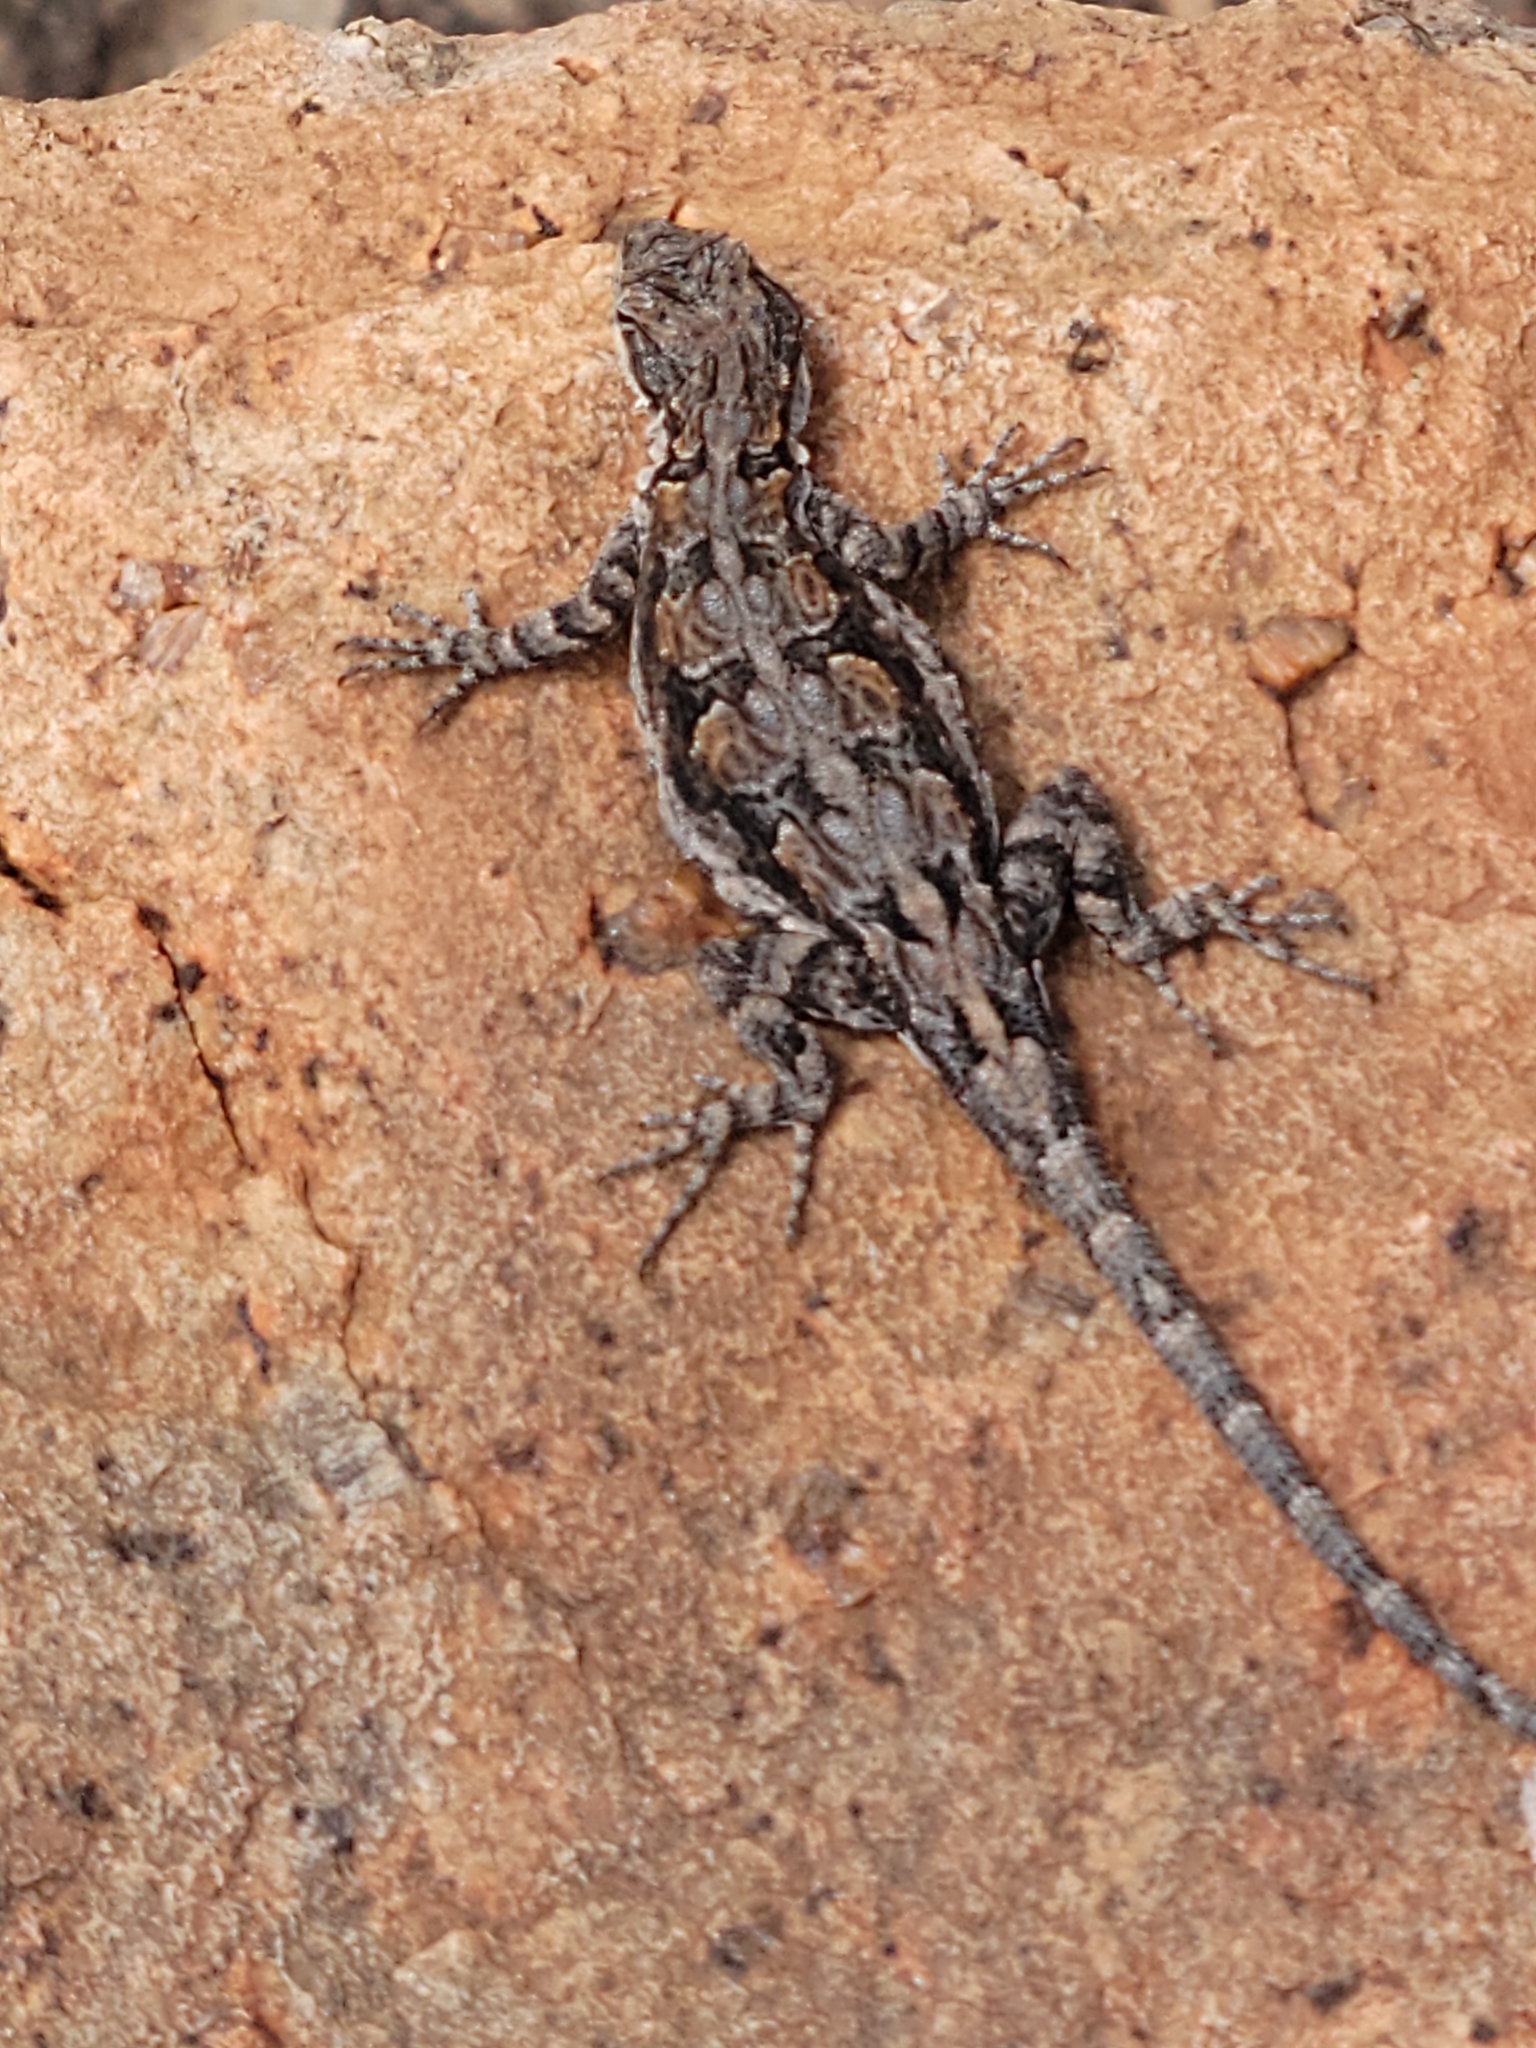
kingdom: Animalia
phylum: Chordata
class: Squamata
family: Phrynosomatidae
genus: Urosaurus
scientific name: Urosaurus ornatus
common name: Ornate tree lizard
